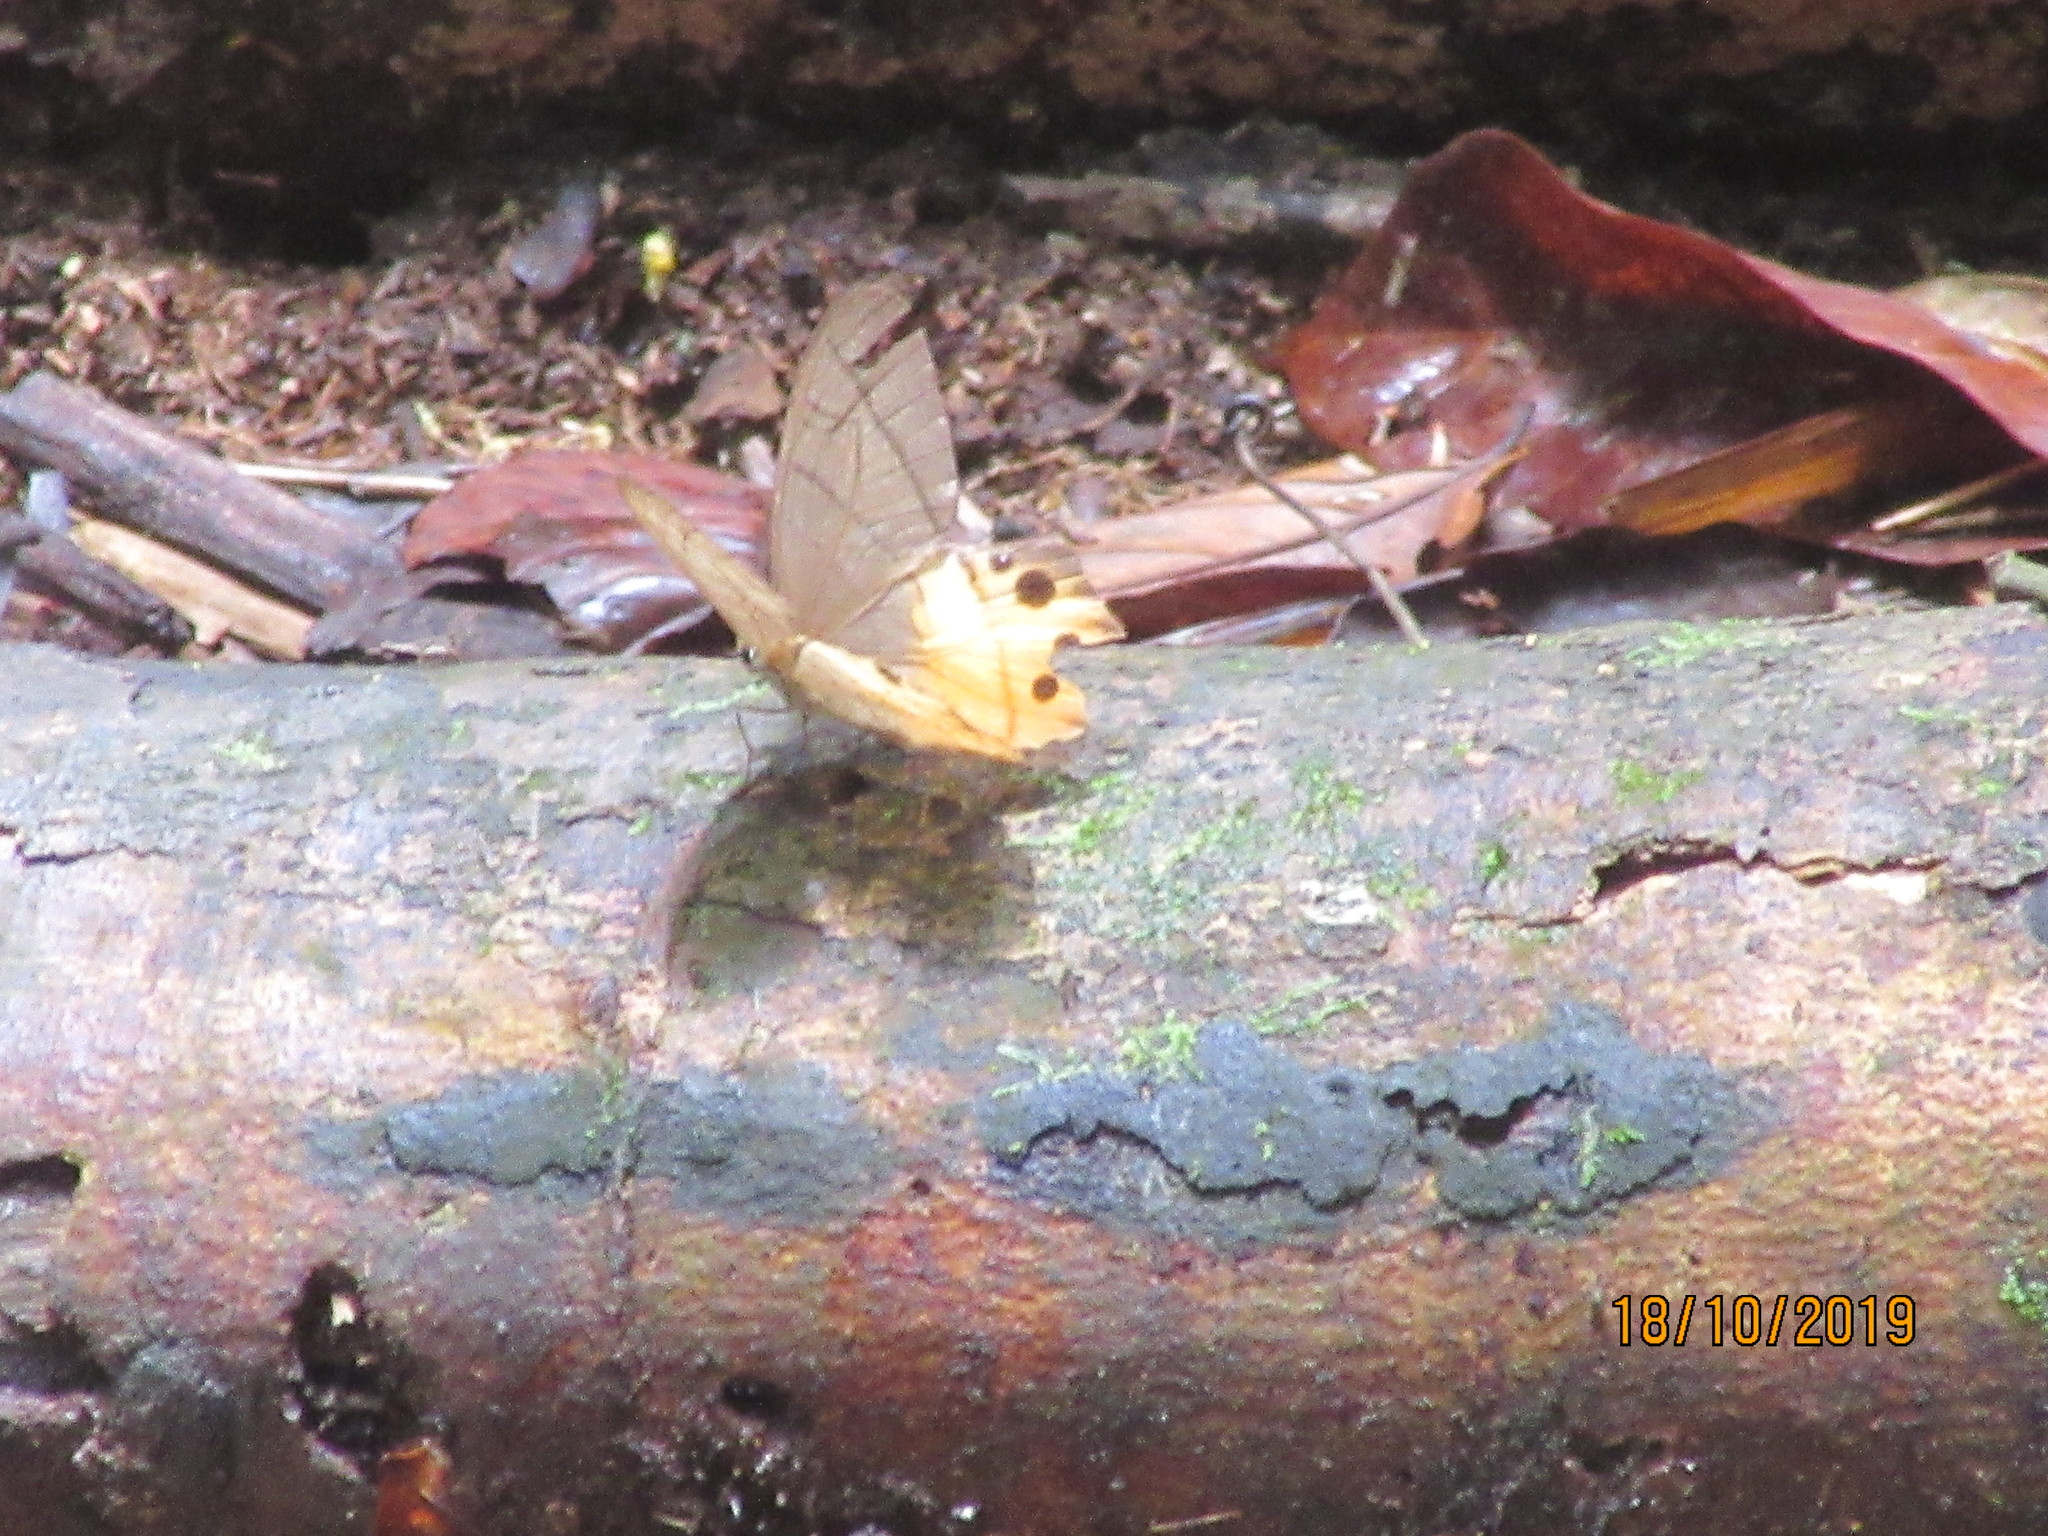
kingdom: Animalia
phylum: Arthropoda
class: Insecta
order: Lepidoptera
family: Nymphalidae
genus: Pierella
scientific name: Pierella hyceta
